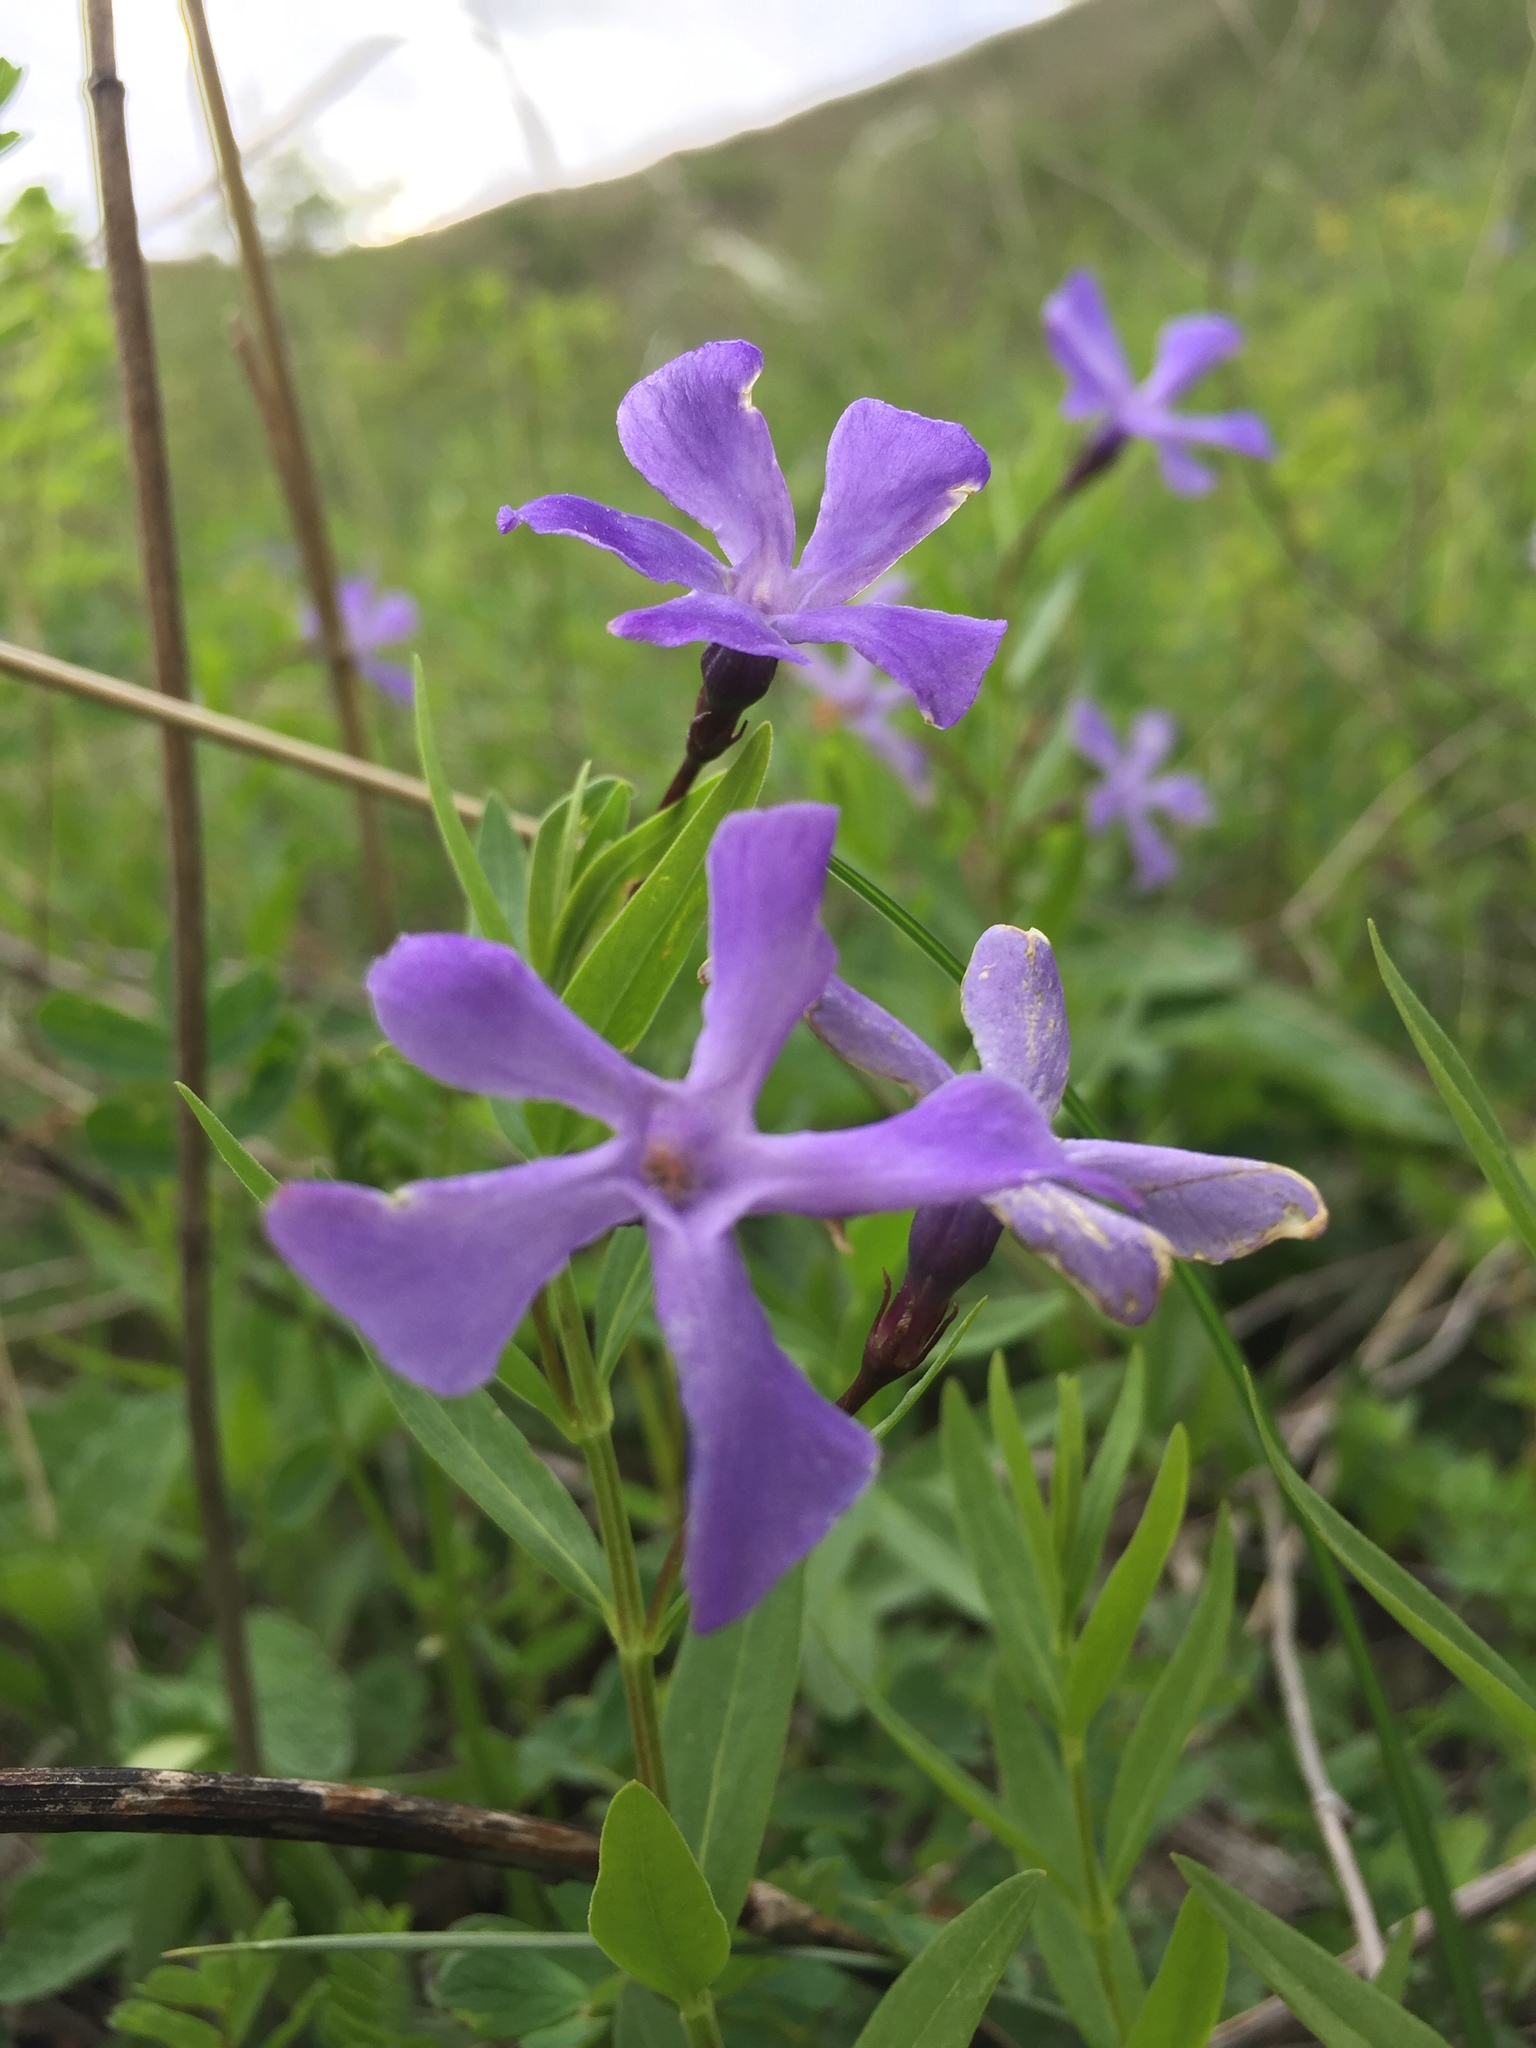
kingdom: Plantae
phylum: Tracheophyta
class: Magnoliopsida
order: Gentianales
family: Apocynaceae
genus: Vinca
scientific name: Vinca herbacea
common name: Herbaceous periwinkle
